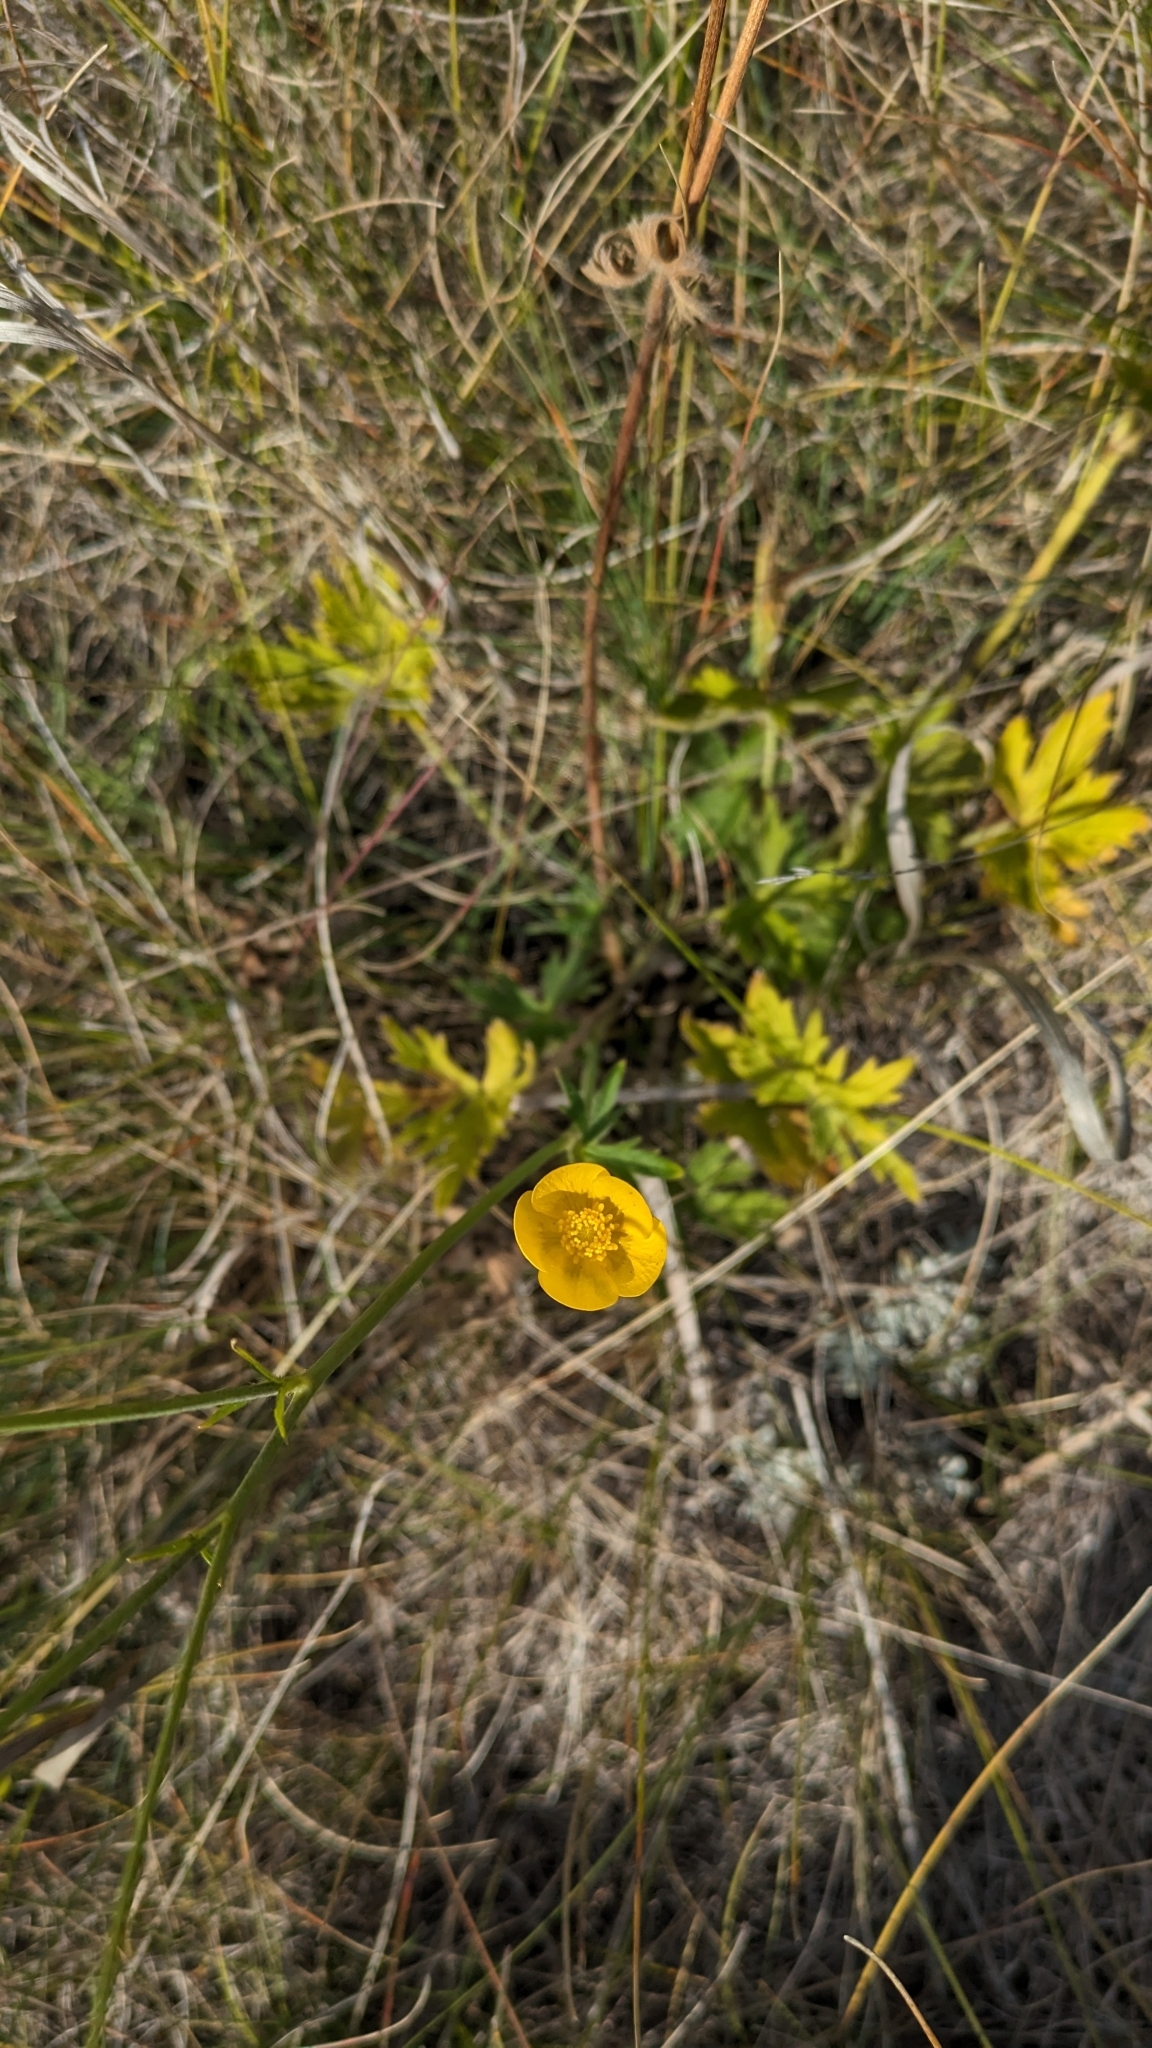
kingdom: Plantae
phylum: Tracheophyta
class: Magnoliopsida
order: Ranunculales
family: Ranunculaceae
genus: Ranunculus
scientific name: Ranunculus acris
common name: Meadow buttercup
